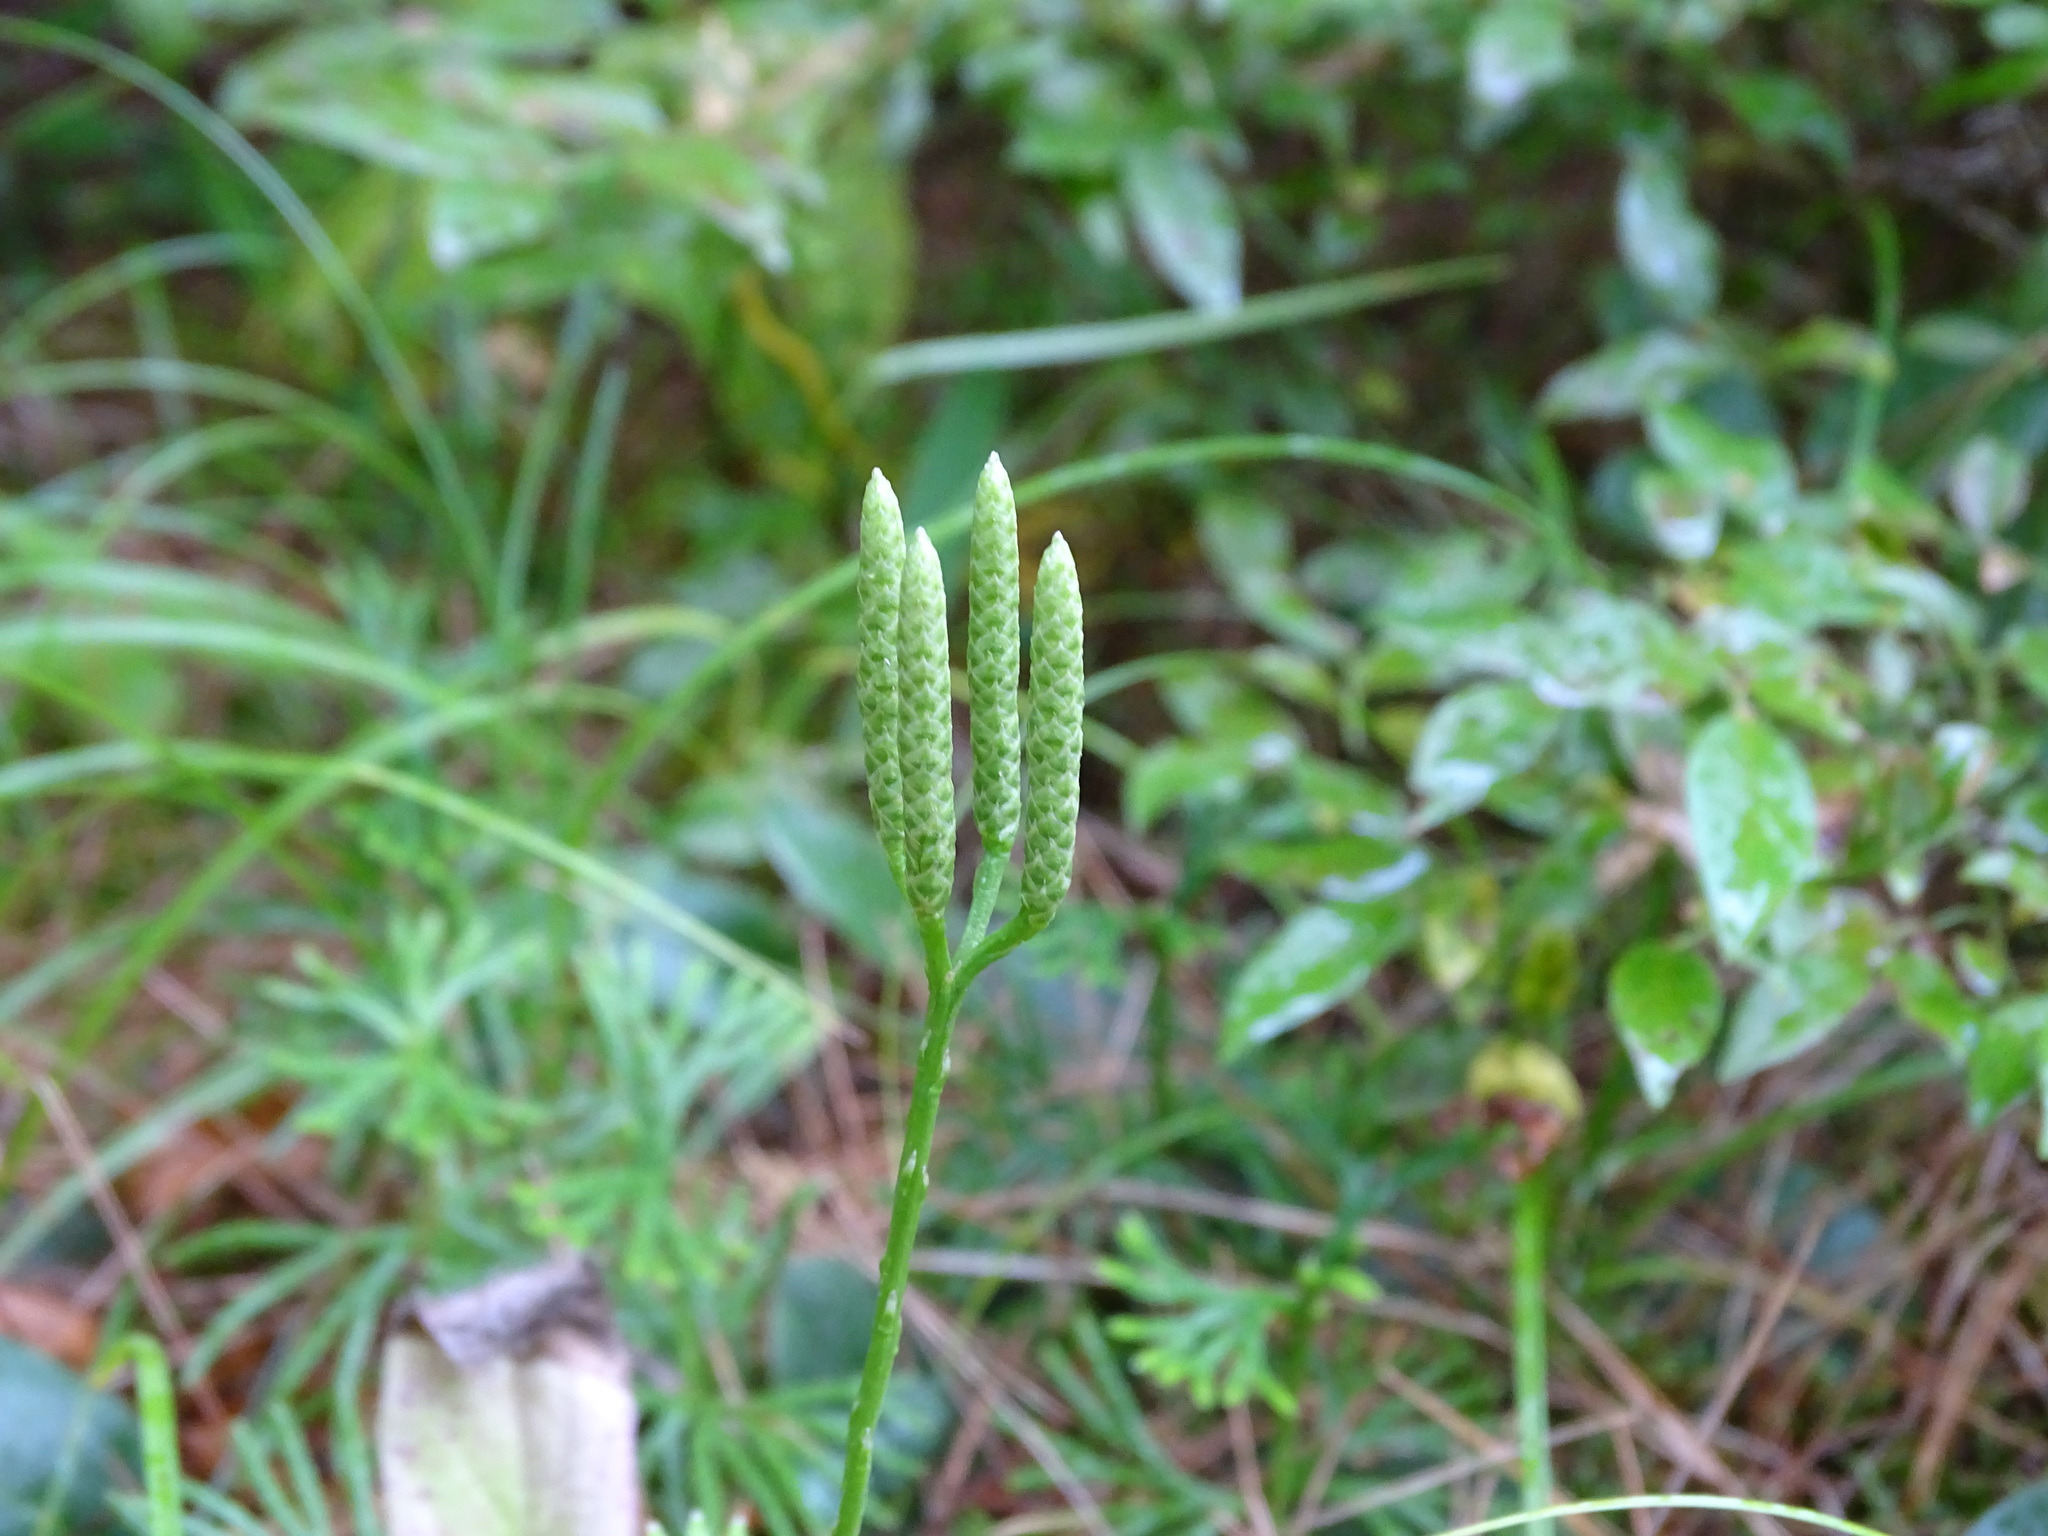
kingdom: Plantae
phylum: Tracheophyta
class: Lycopodiopsida
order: Lycopodiales
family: Lycopodiaceae
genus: Diphasiastrum
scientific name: Diphasiastrum digitatum
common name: Southern running-pine
